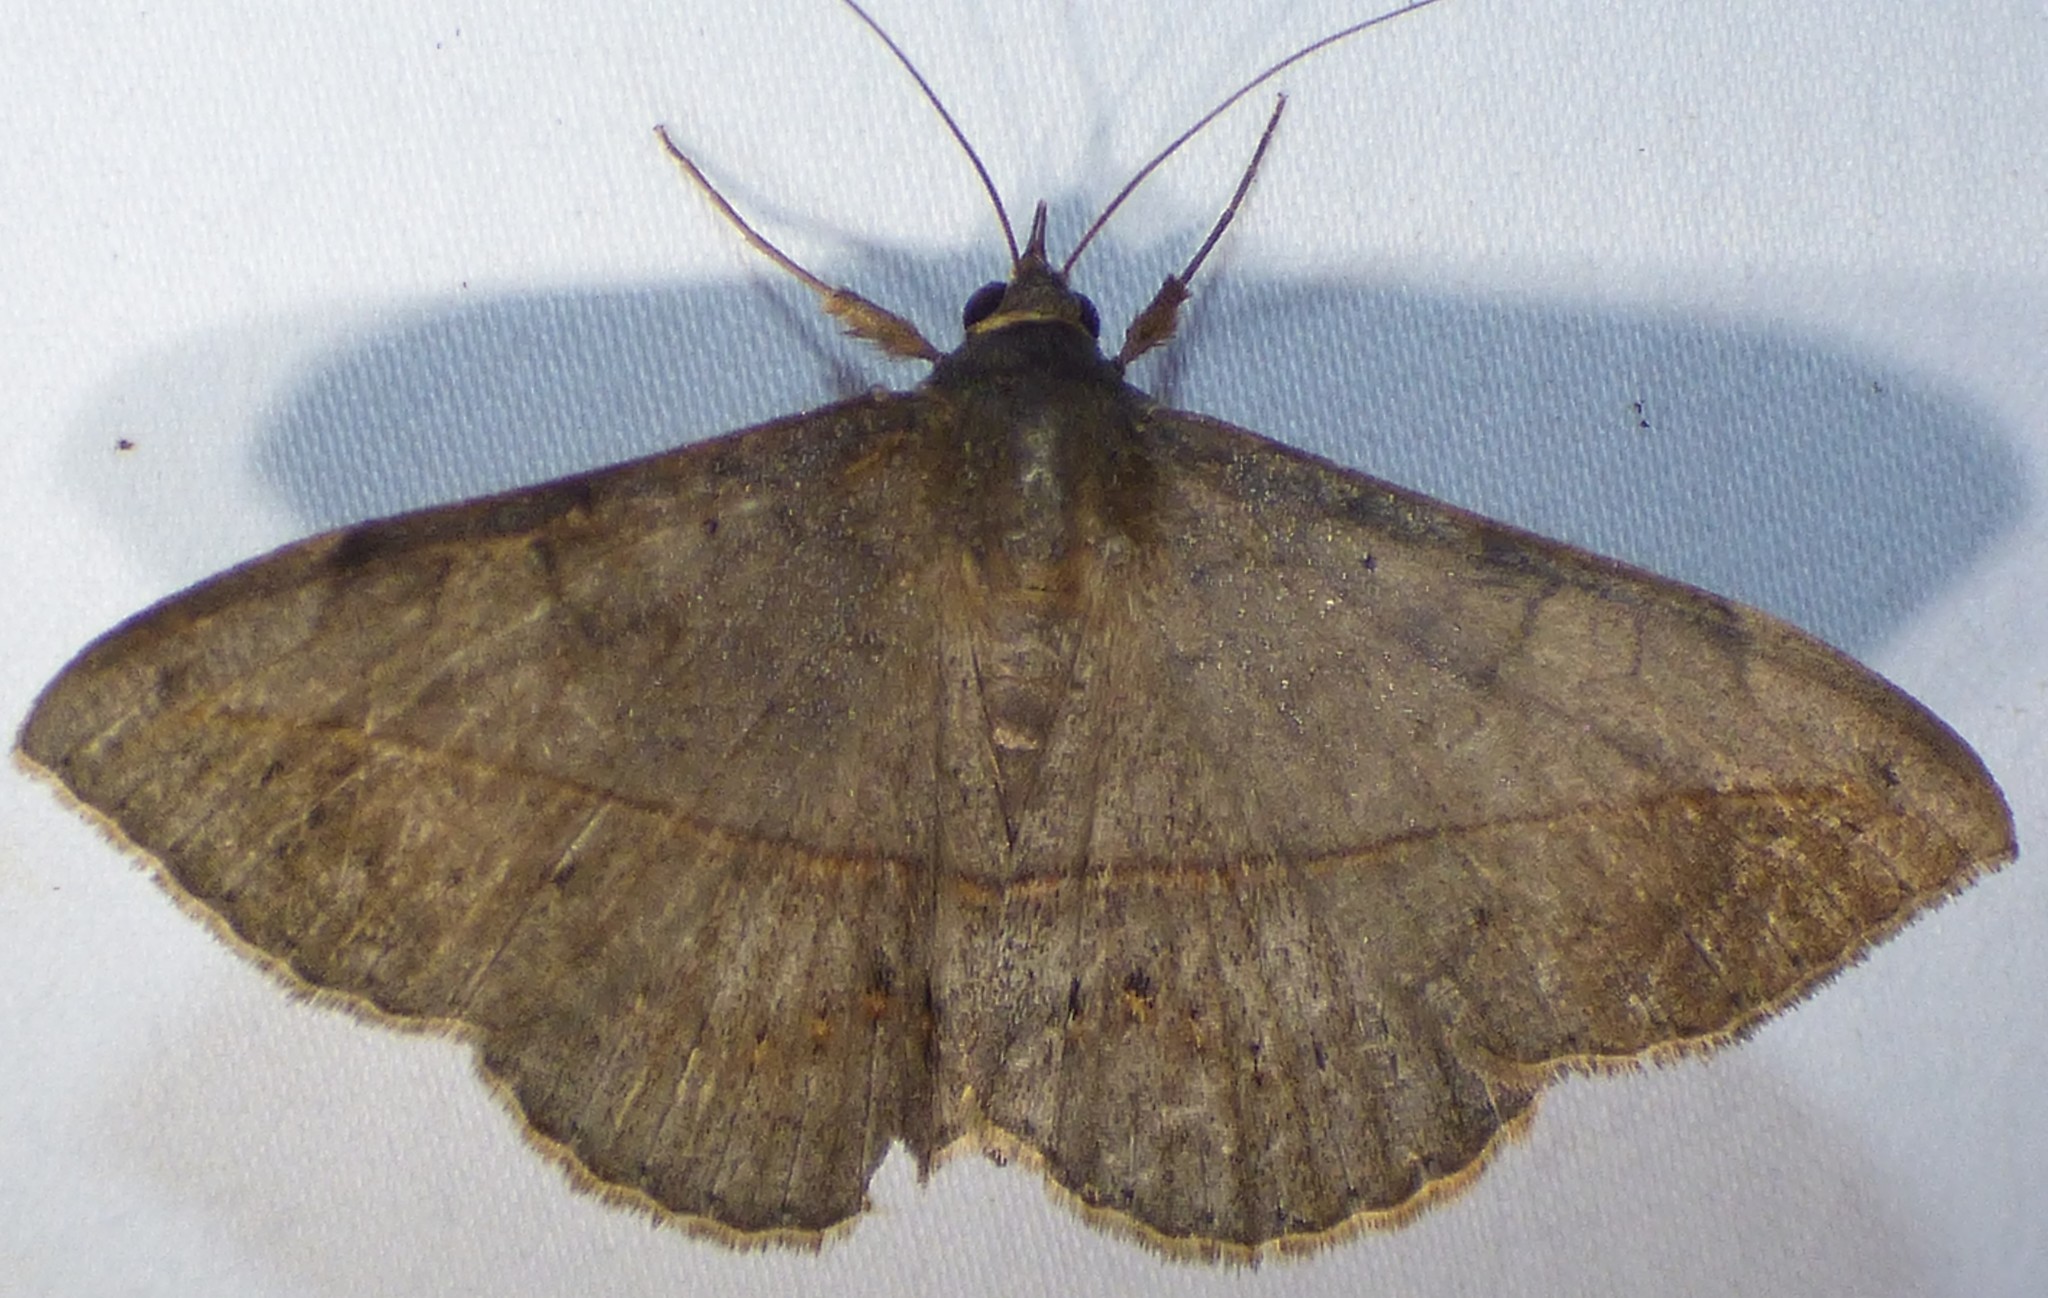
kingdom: Animalia
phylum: Arthropoda
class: Insecta
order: Lepidoptera
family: Erebidae
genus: Anticarsia
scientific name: Anticarsia gemmatalis
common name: Cutworm moth
